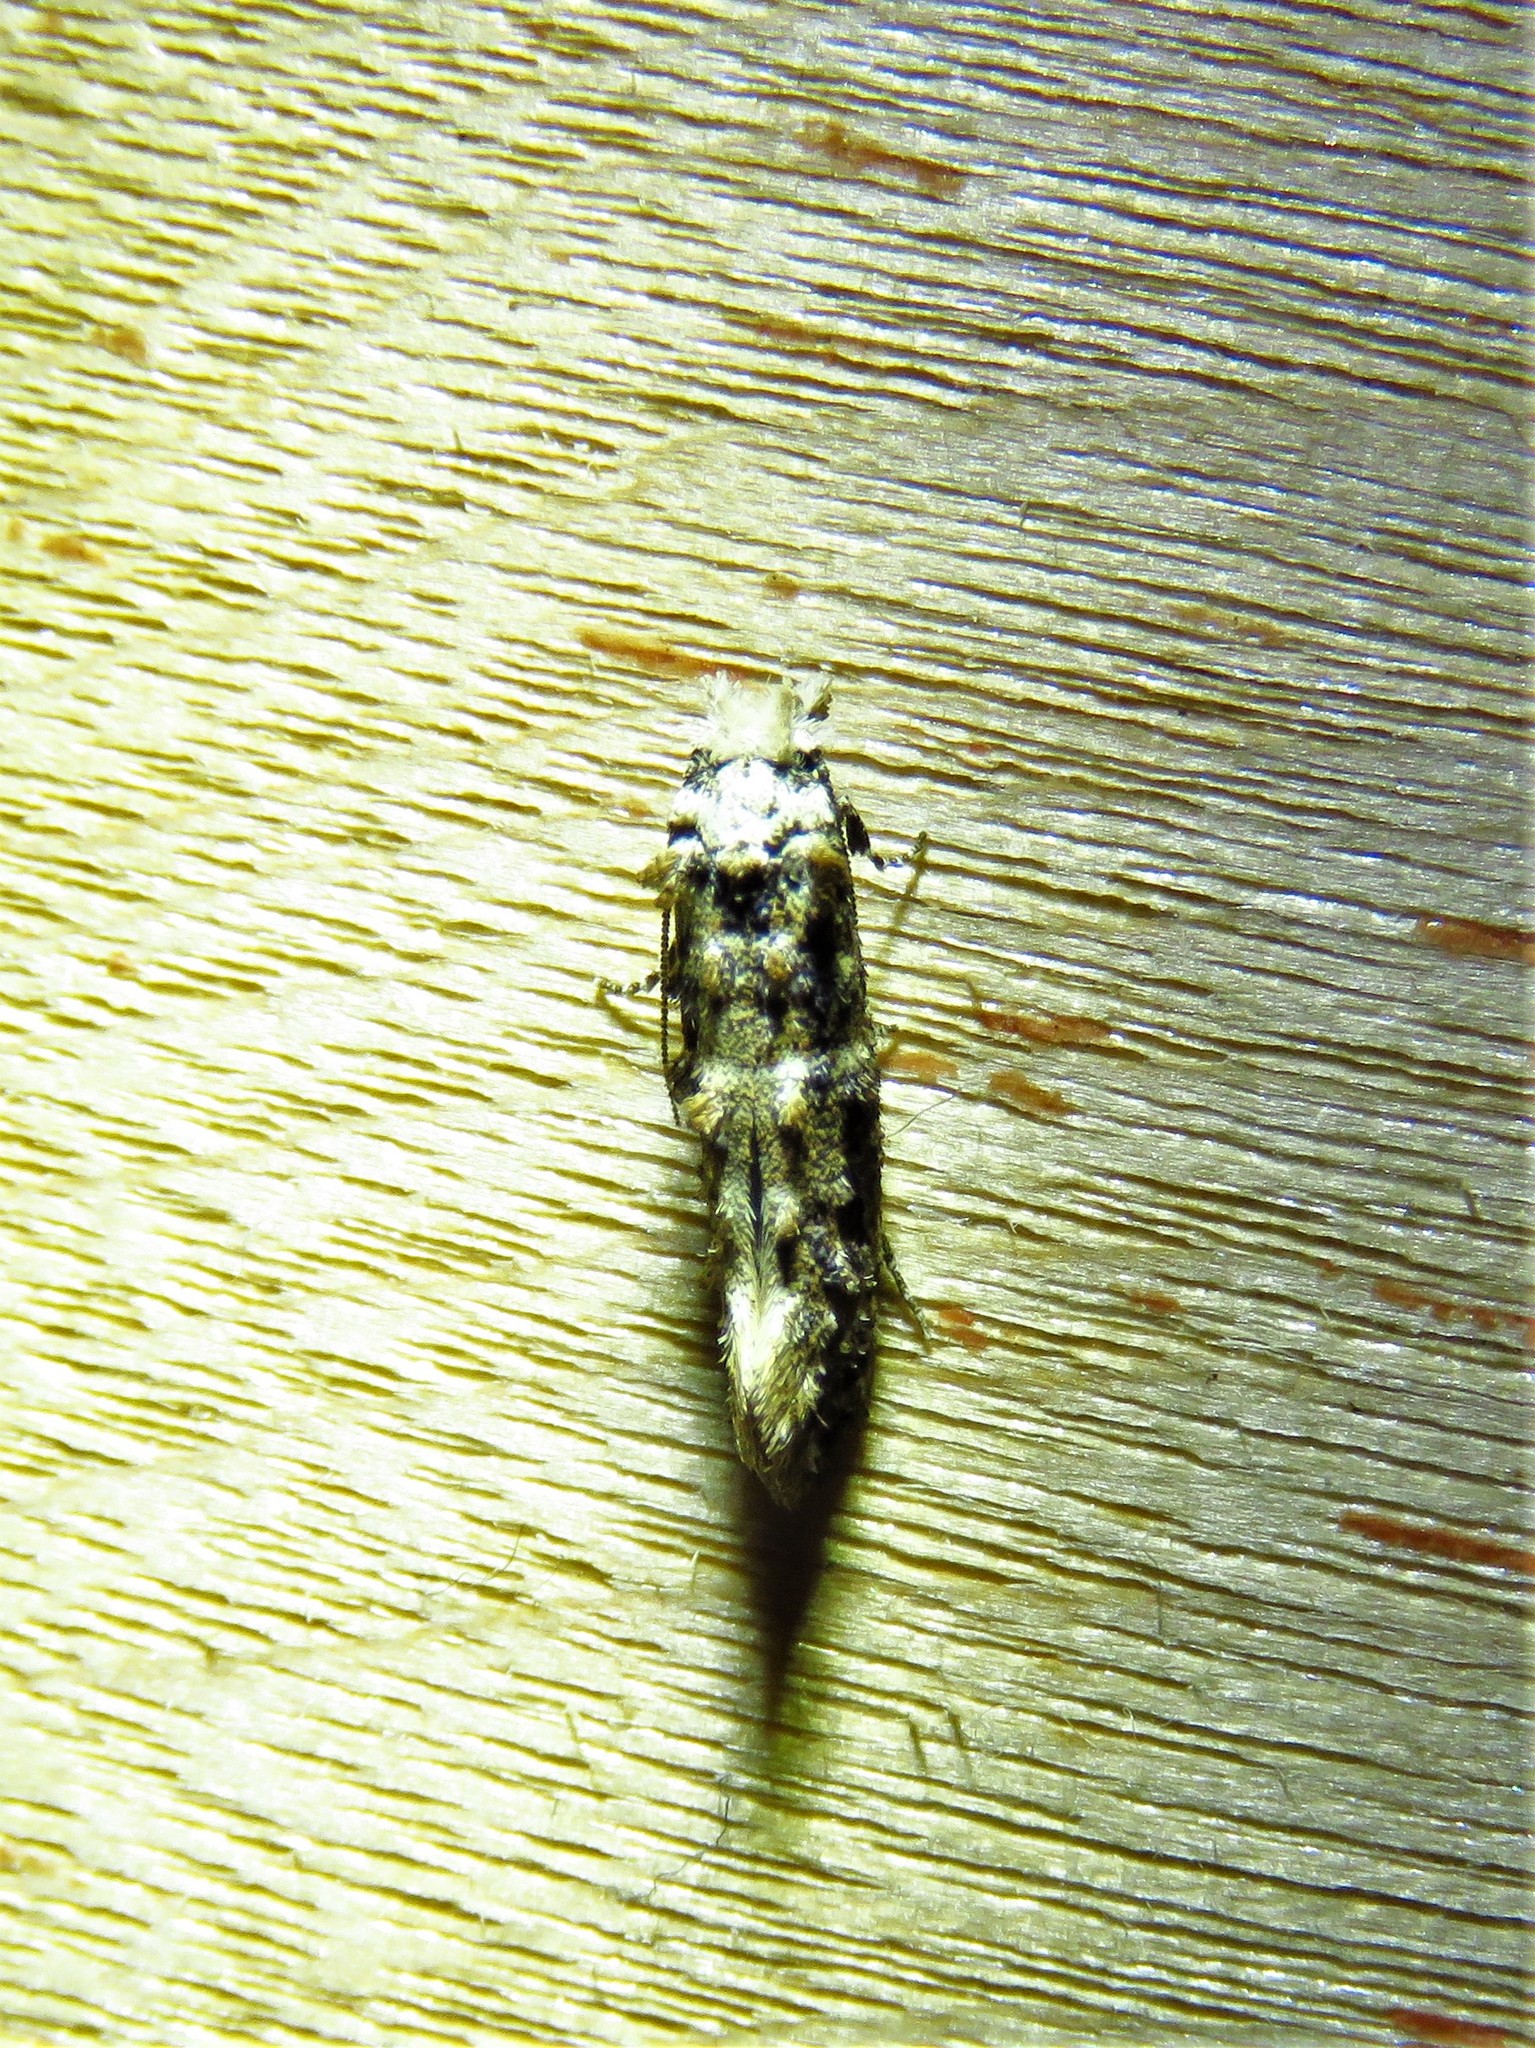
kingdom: Animalia
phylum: Arthropoda
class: Insecta
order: Lepidoptera
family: Tineidae
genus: Xylesthia
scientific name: Xylesthia pruniramiella
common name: Clemens' bark moth
